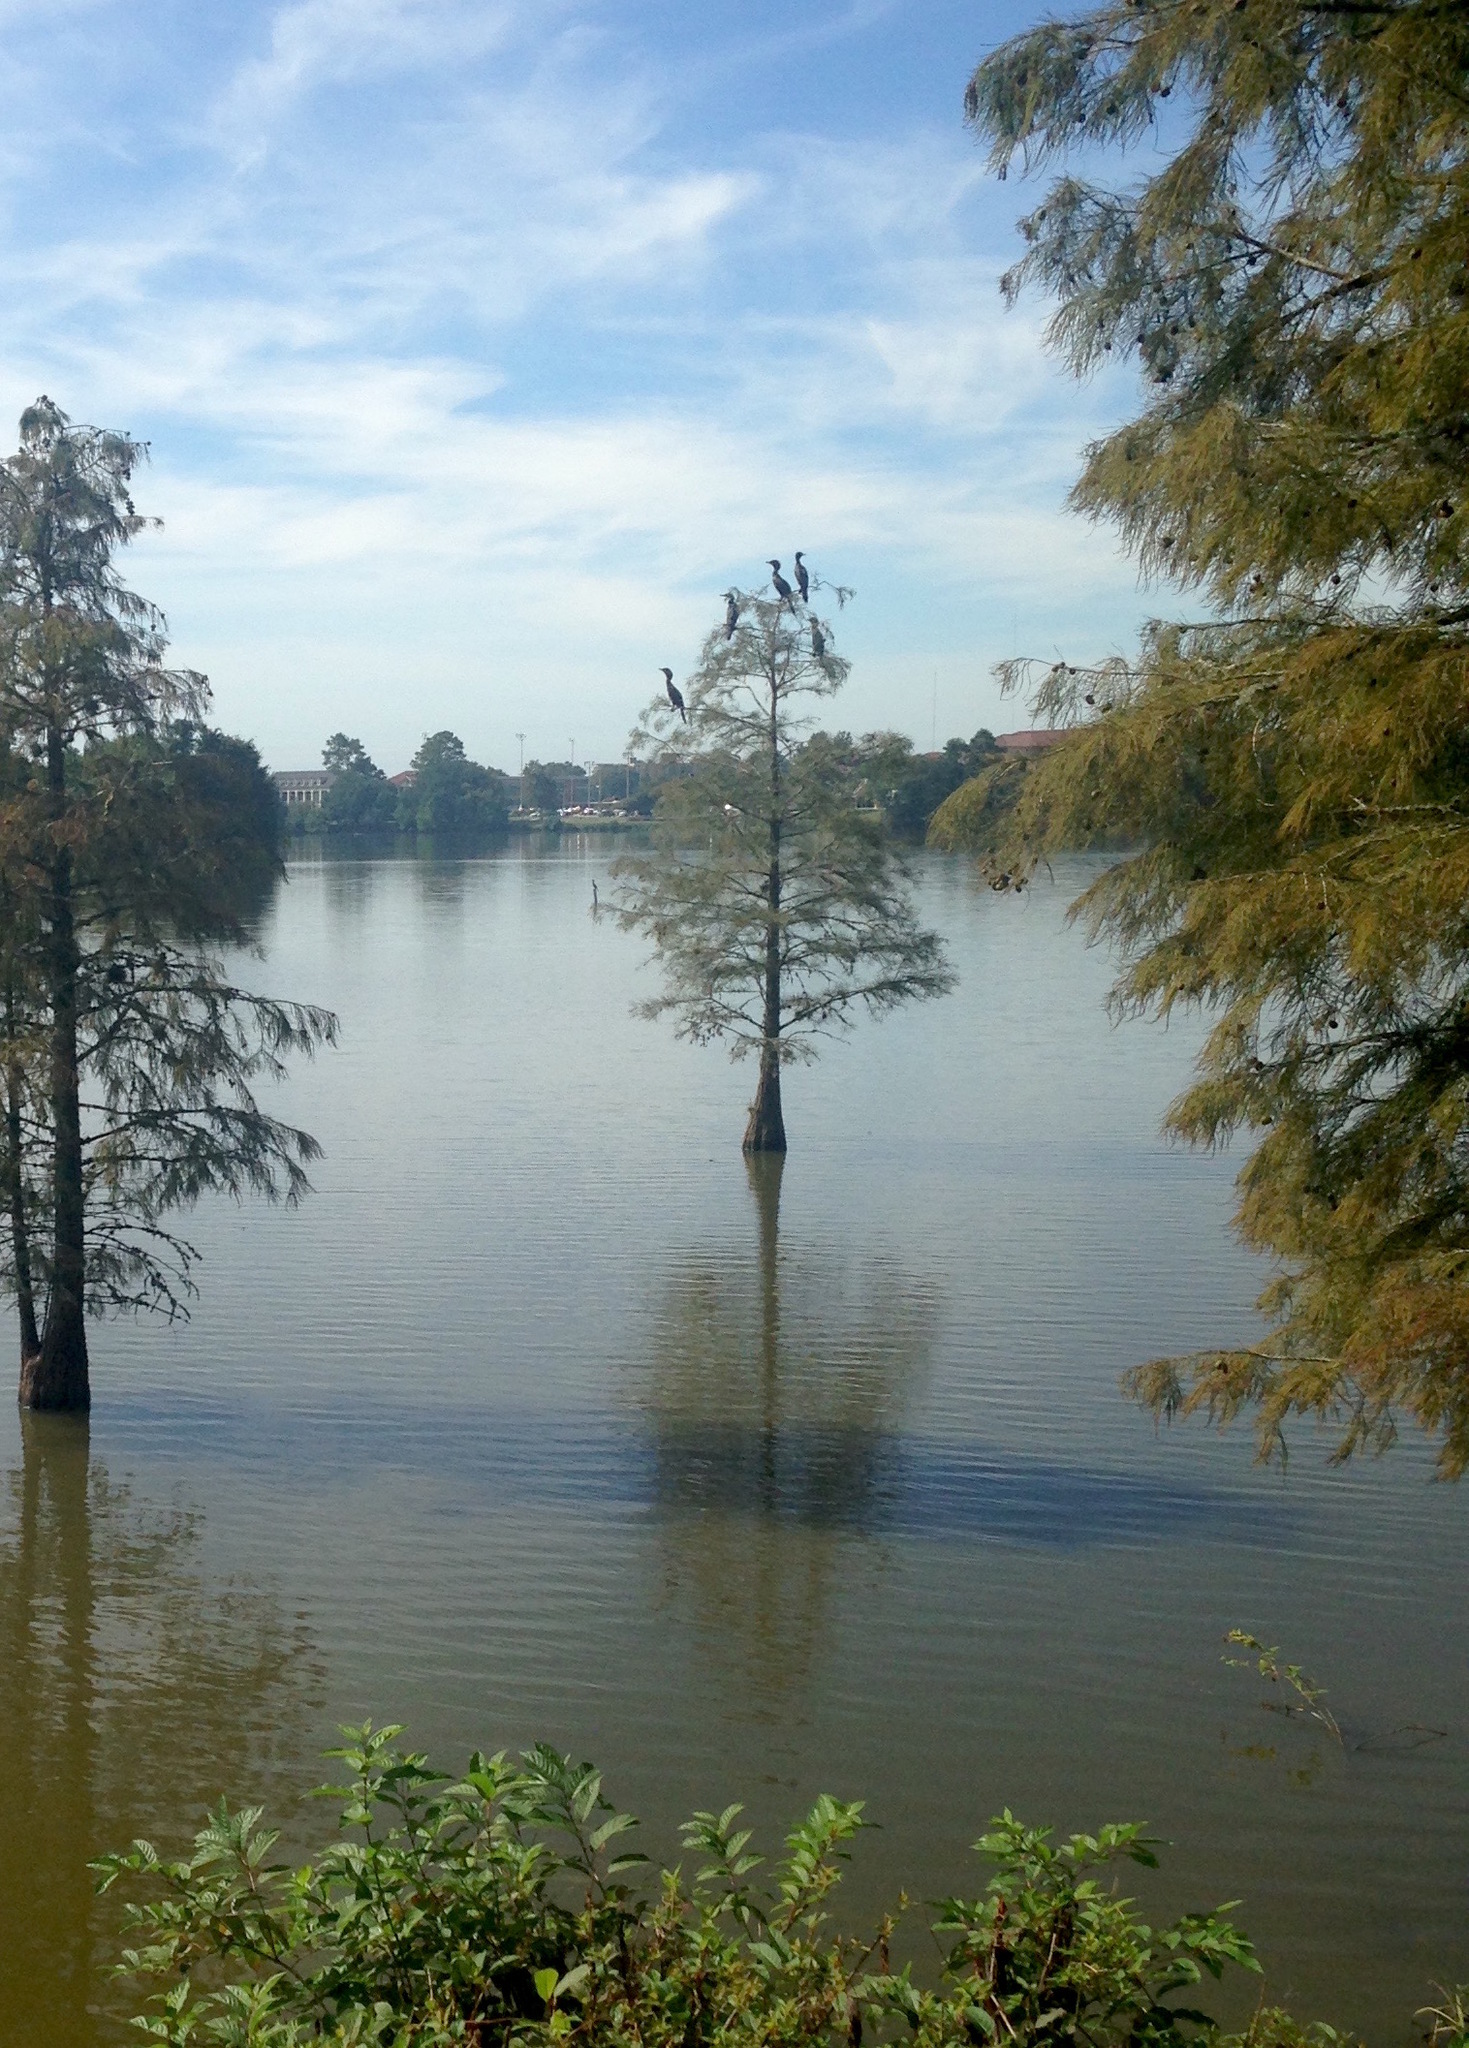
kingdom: Animalia
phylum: Chordata
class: Aves
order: Suliformes
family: Phalacrocoracidae
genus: Phalacrocorax
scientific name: Phalacrocorax brasilianus
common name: Neotropic cormorant
